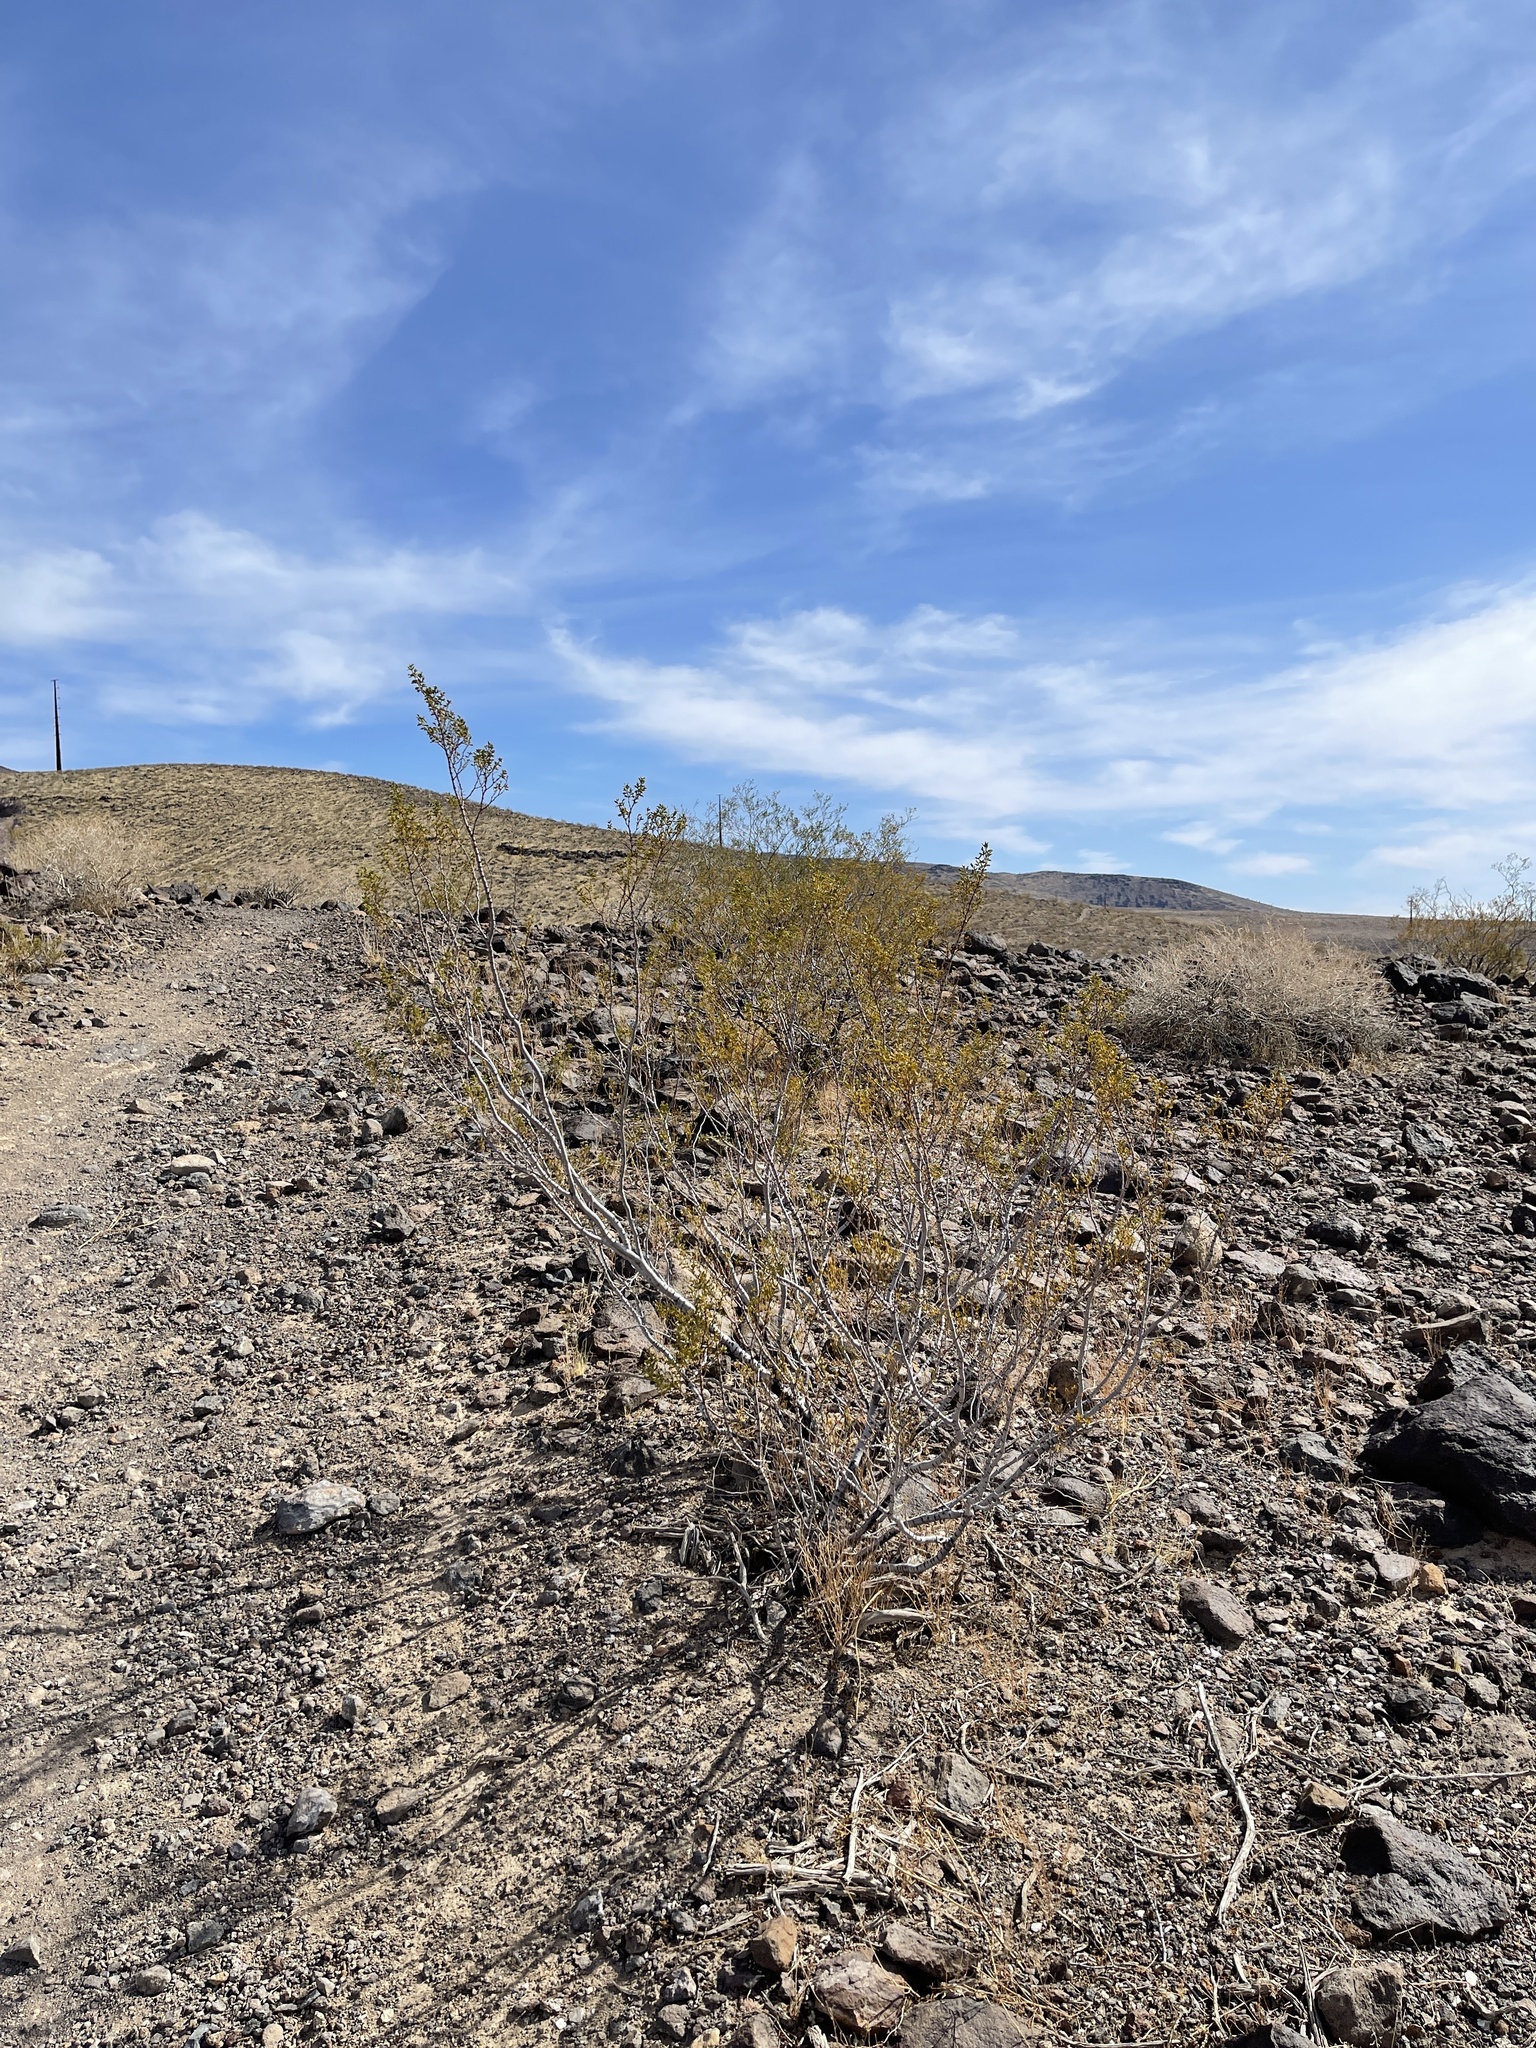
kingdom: Plantae
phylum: Tracheophyta
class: Magnoliopsida
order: Zygophyllales
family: Zygophyllaceae
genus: Larrea
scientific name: Larrea tridentata
